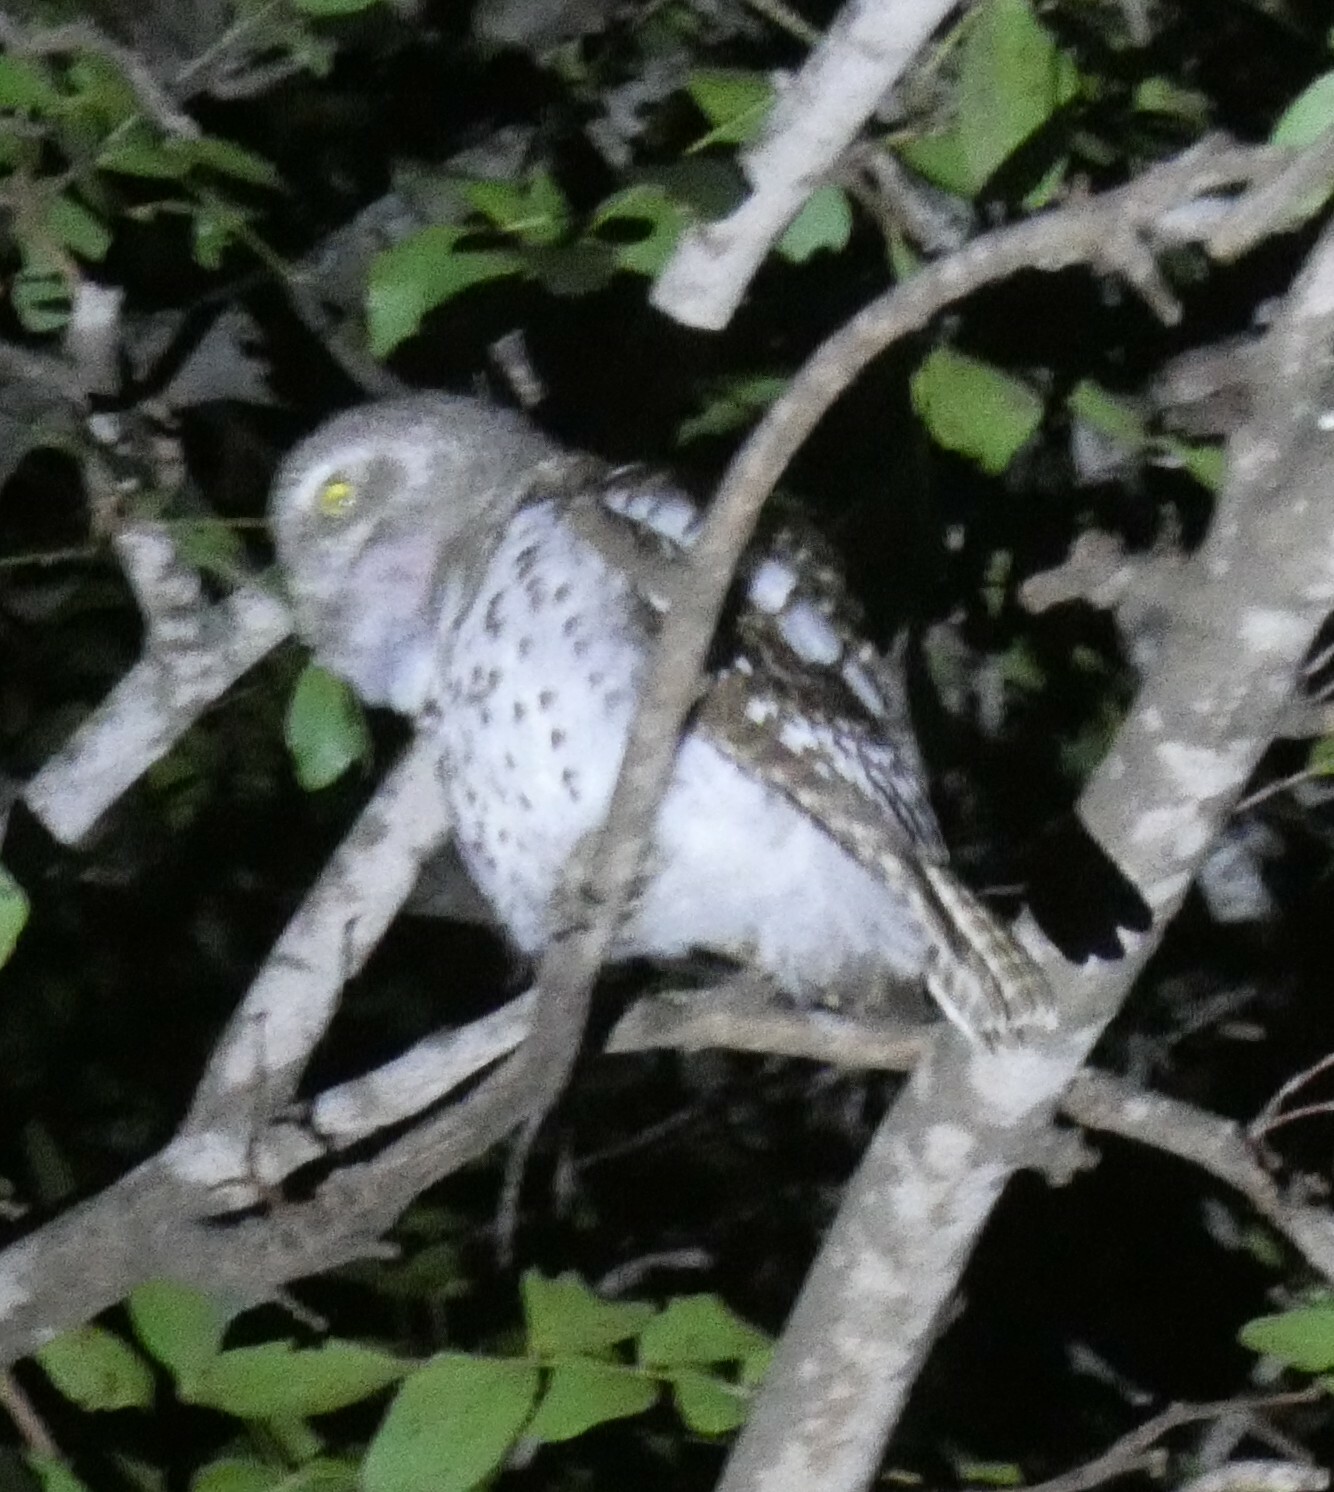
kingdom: Animalia
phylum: Chordata
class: Aves
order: Strigiformes
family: Strigidae
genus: Glaucidium
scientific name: Glaucidium capense
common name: African barred owlet
